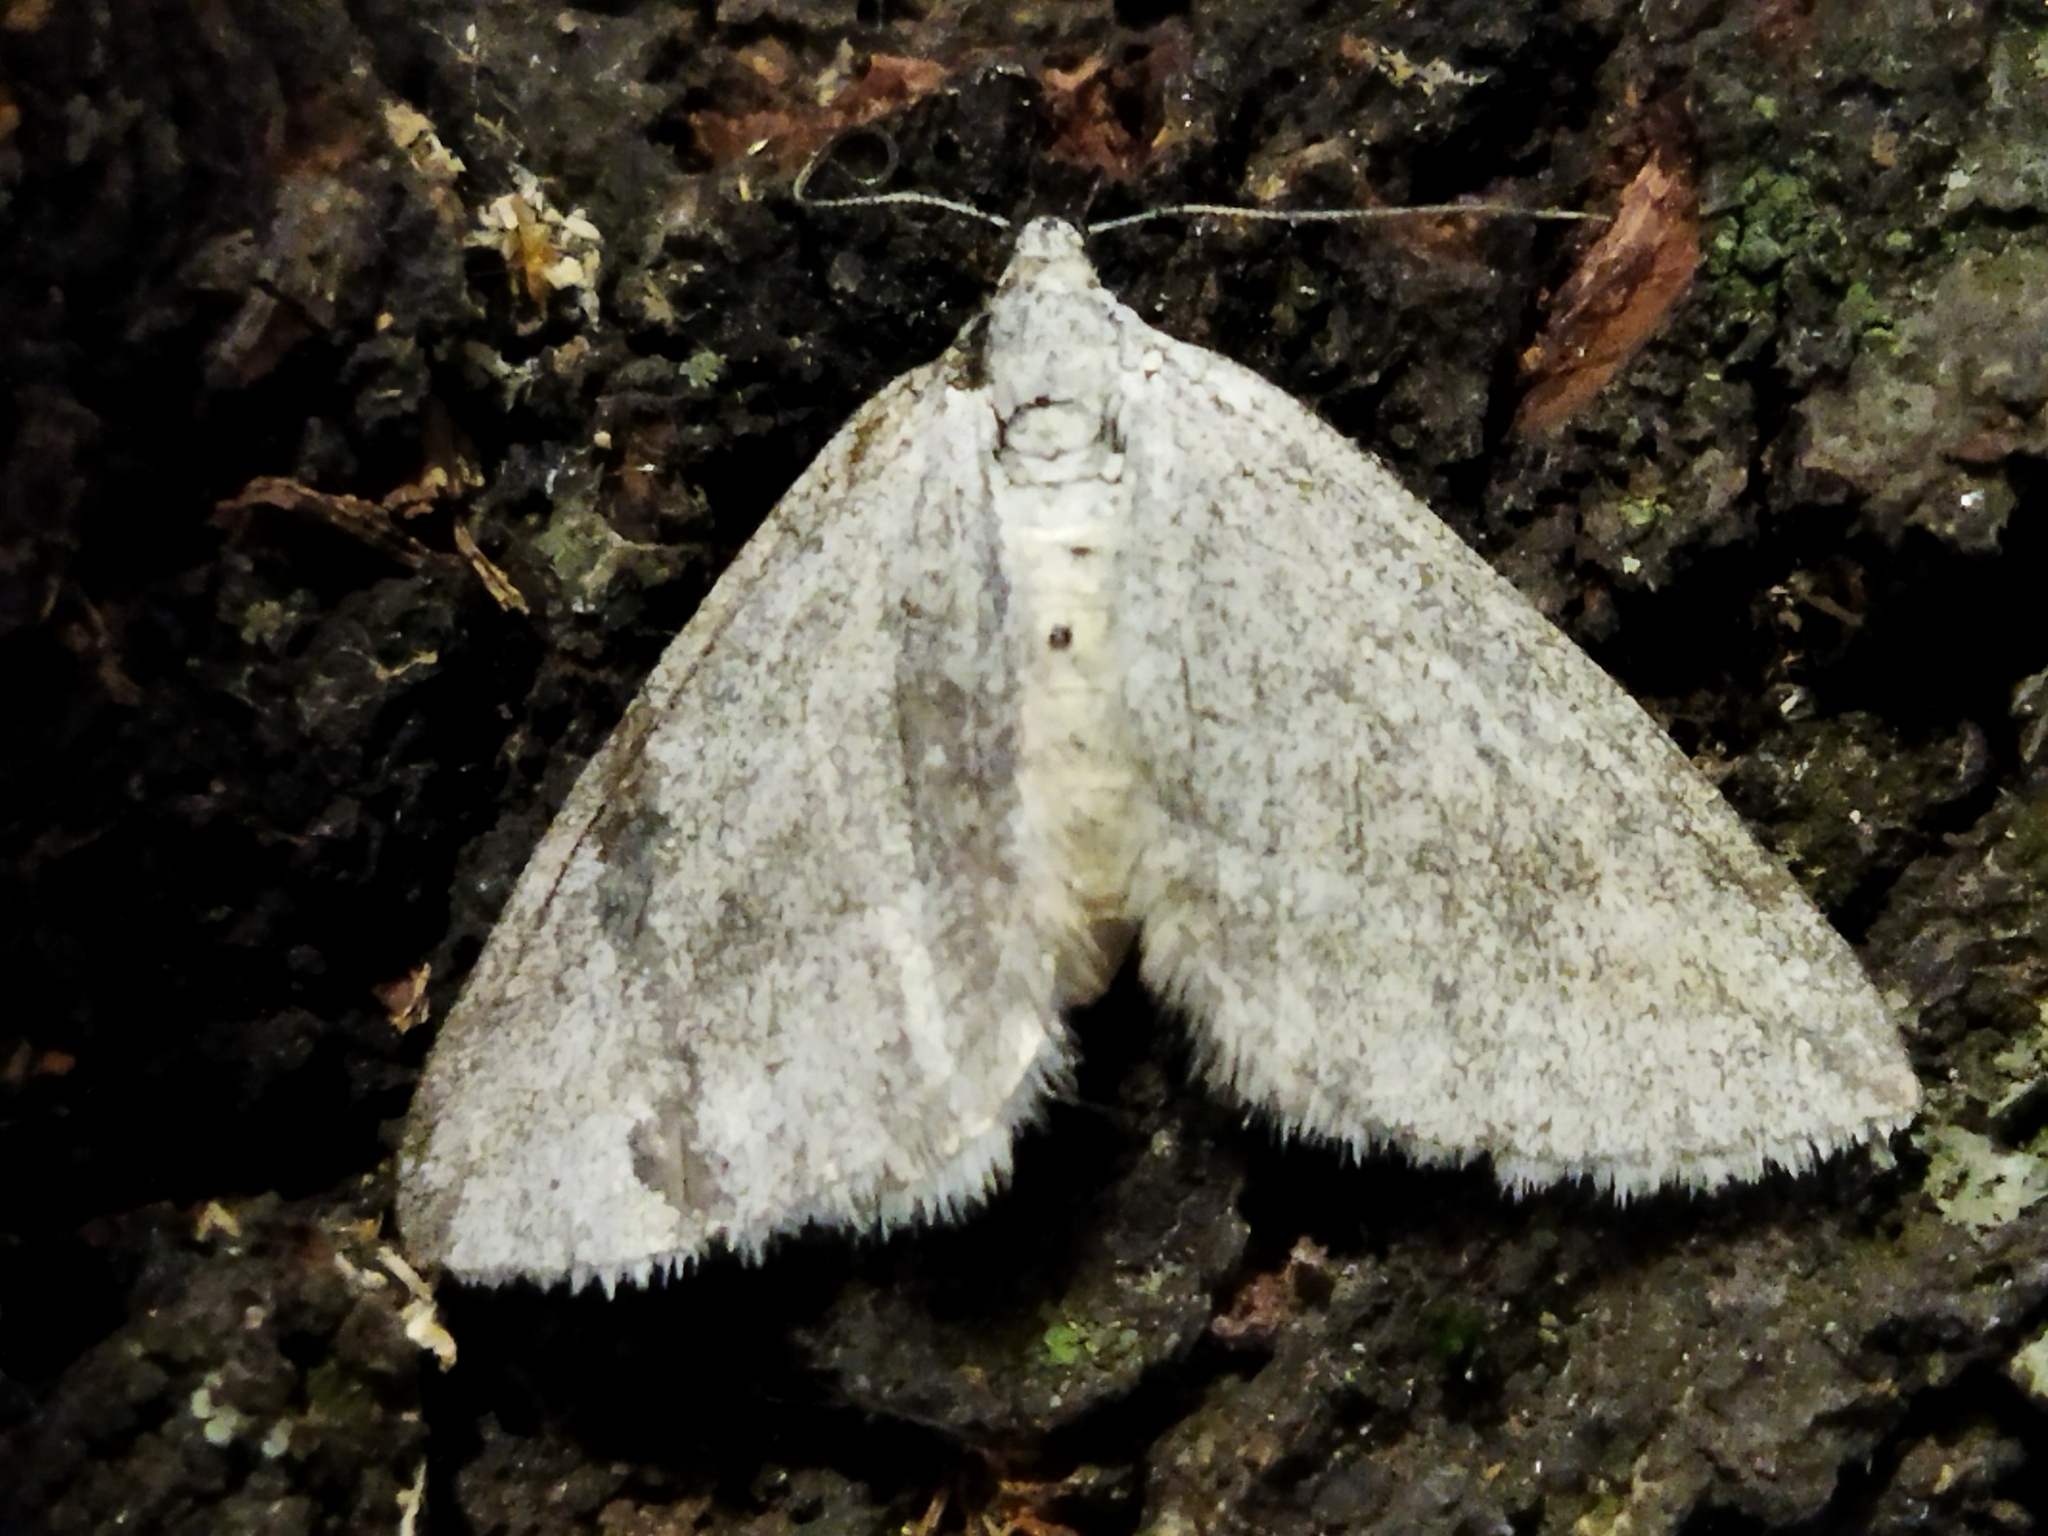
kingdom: Animalia
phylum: Arthropoda
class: Insecta
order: Lepidoptera
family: Geometridae
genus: Lithostege
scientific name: Lithostege griseata
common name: Grey carpet
